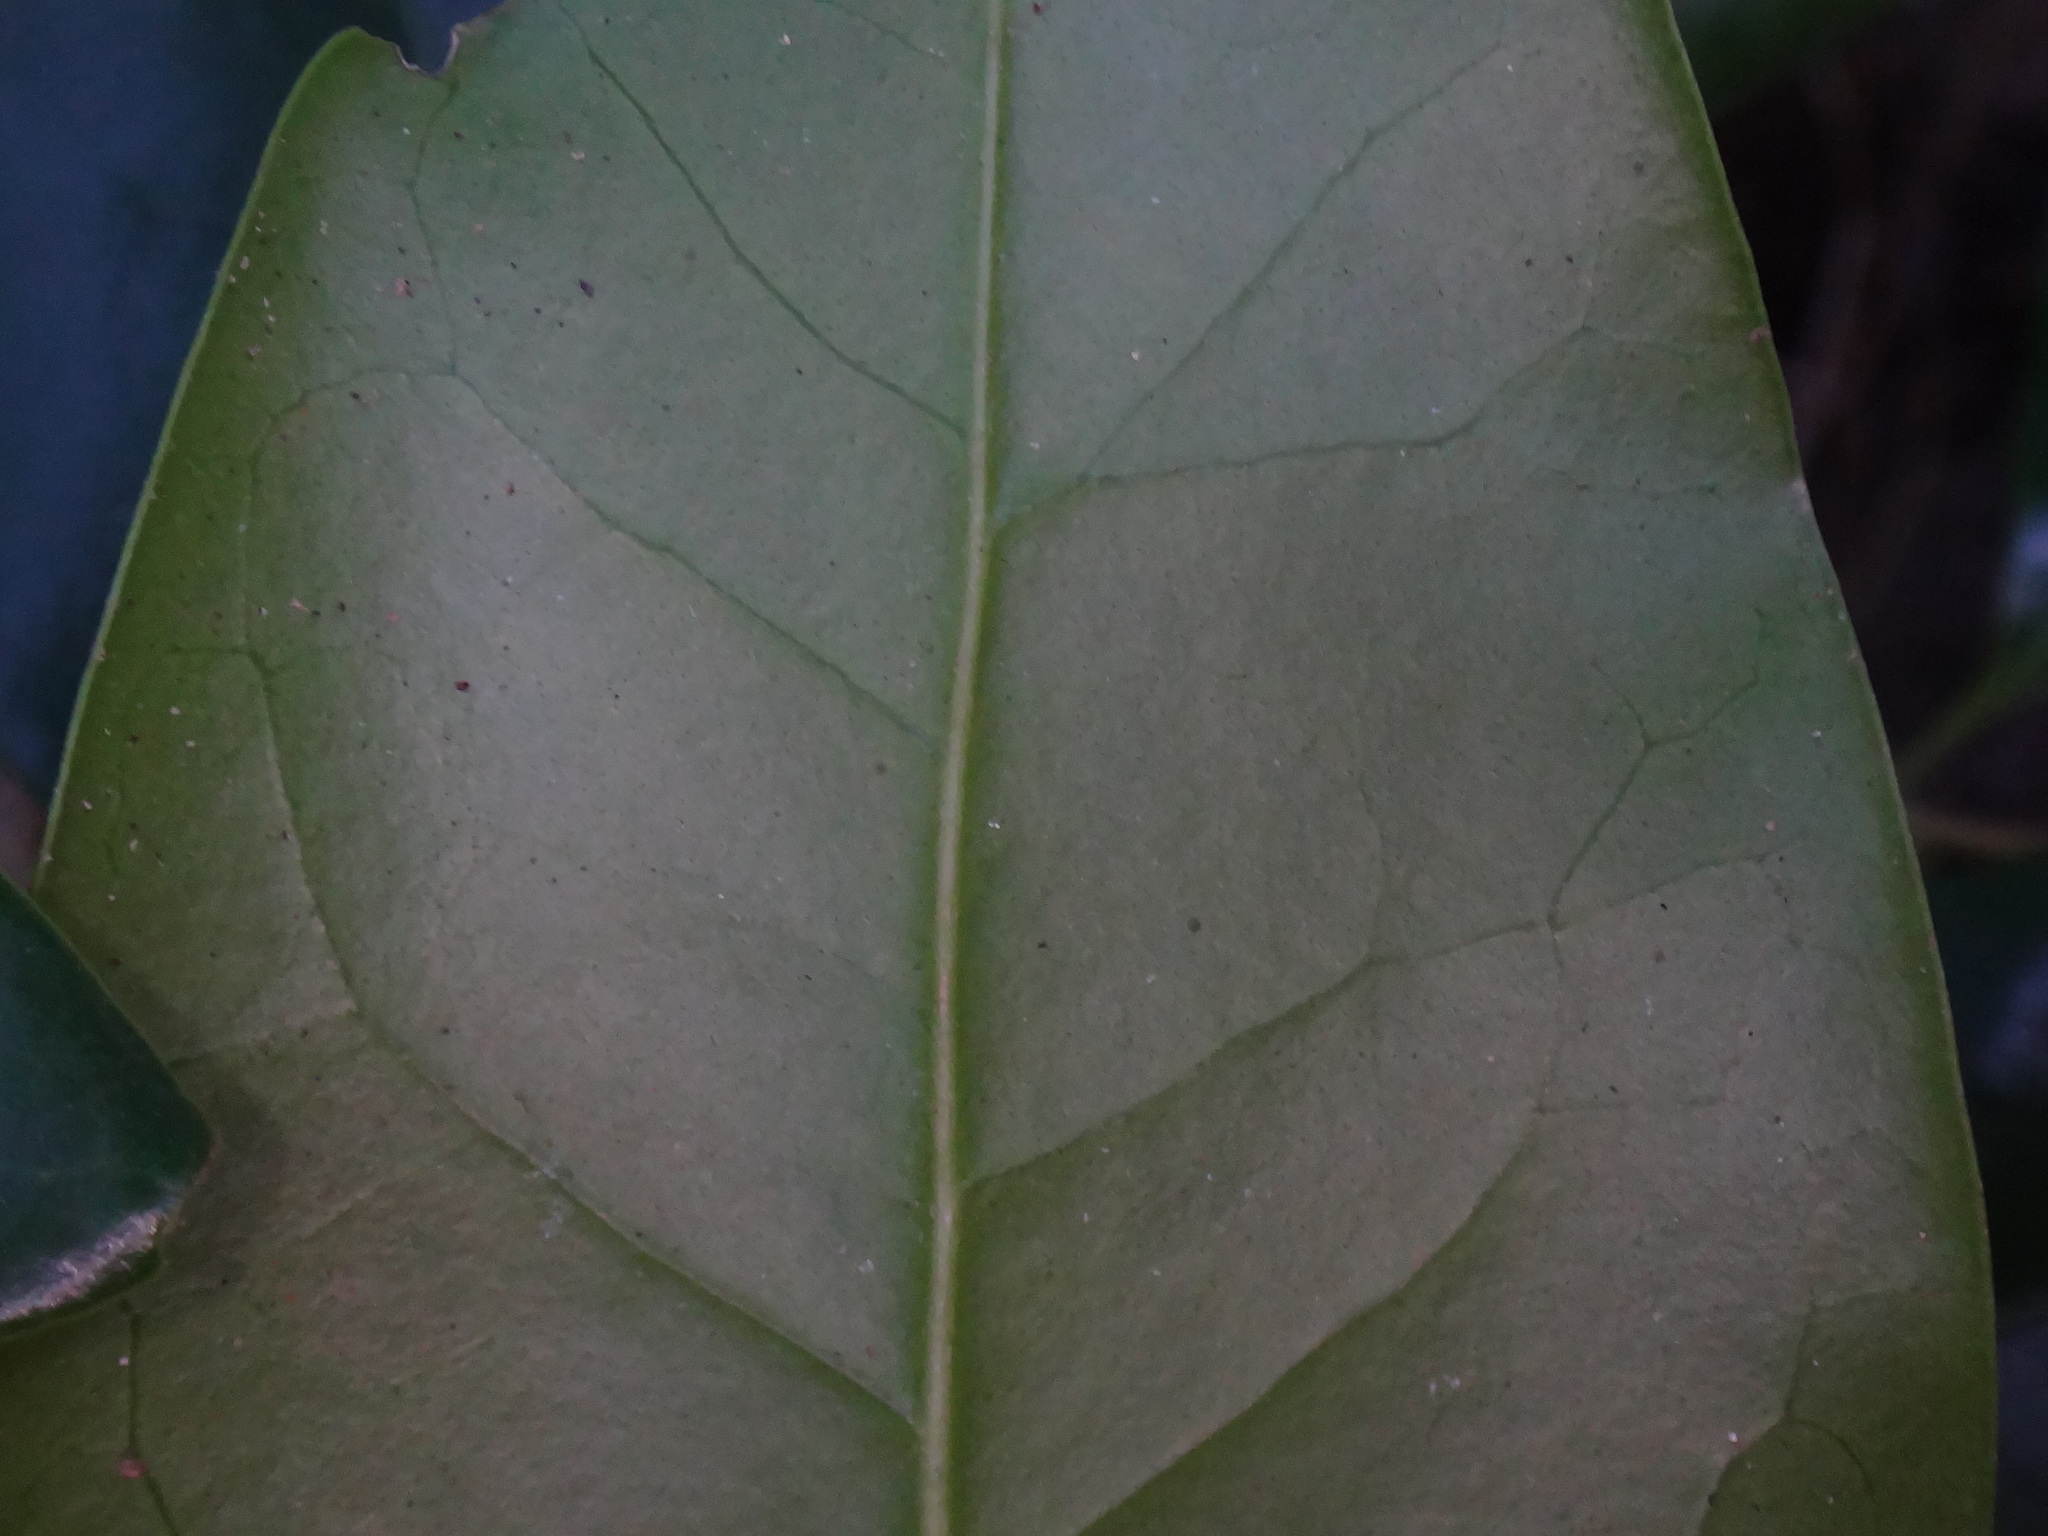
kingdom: Plantae
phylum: Tracheophyta
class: Magnoliopsida
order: Lamiales
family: Oleaceae
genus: Picconia
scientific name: Picconia excelsa
